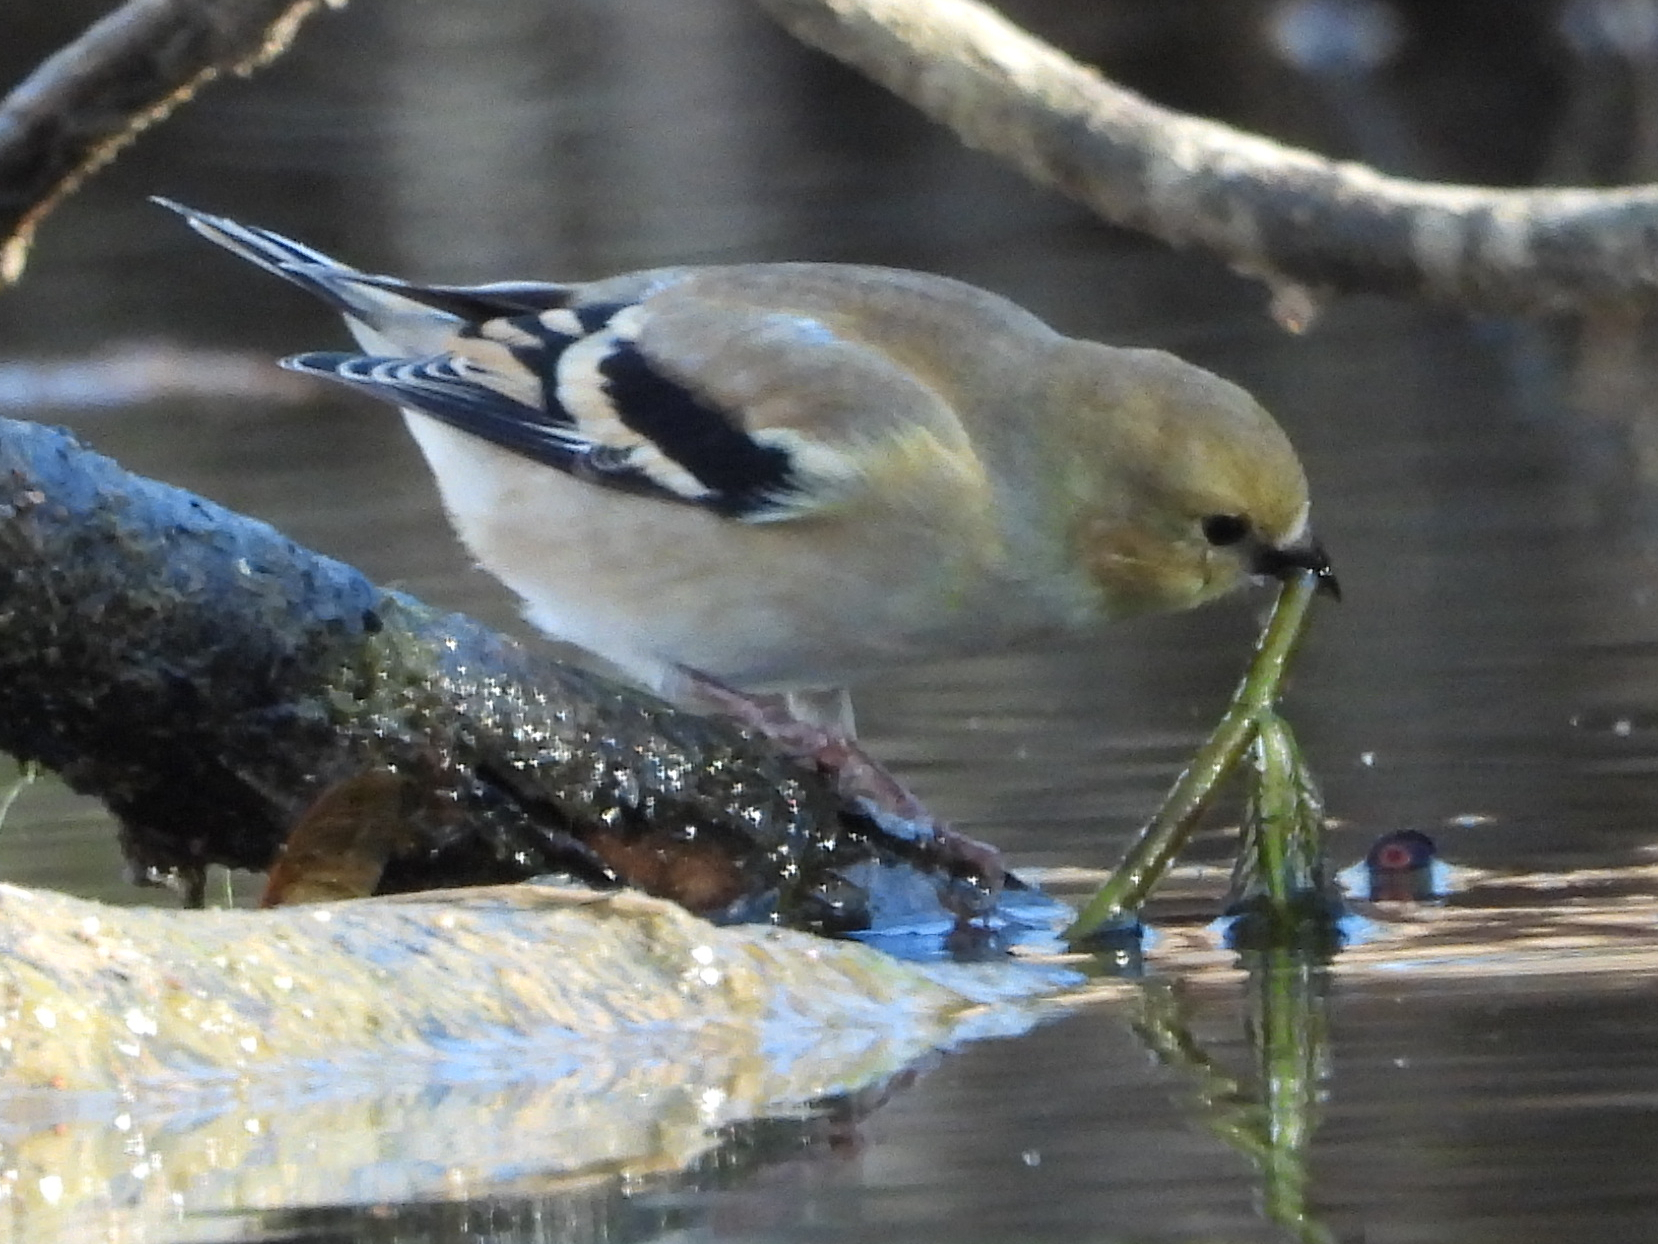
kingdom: Animalia
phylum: Chordata
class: Aves
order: Passeriformes
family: Fringillidae
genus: Spinus
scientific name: Spinus tristis
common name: American goldfinch
